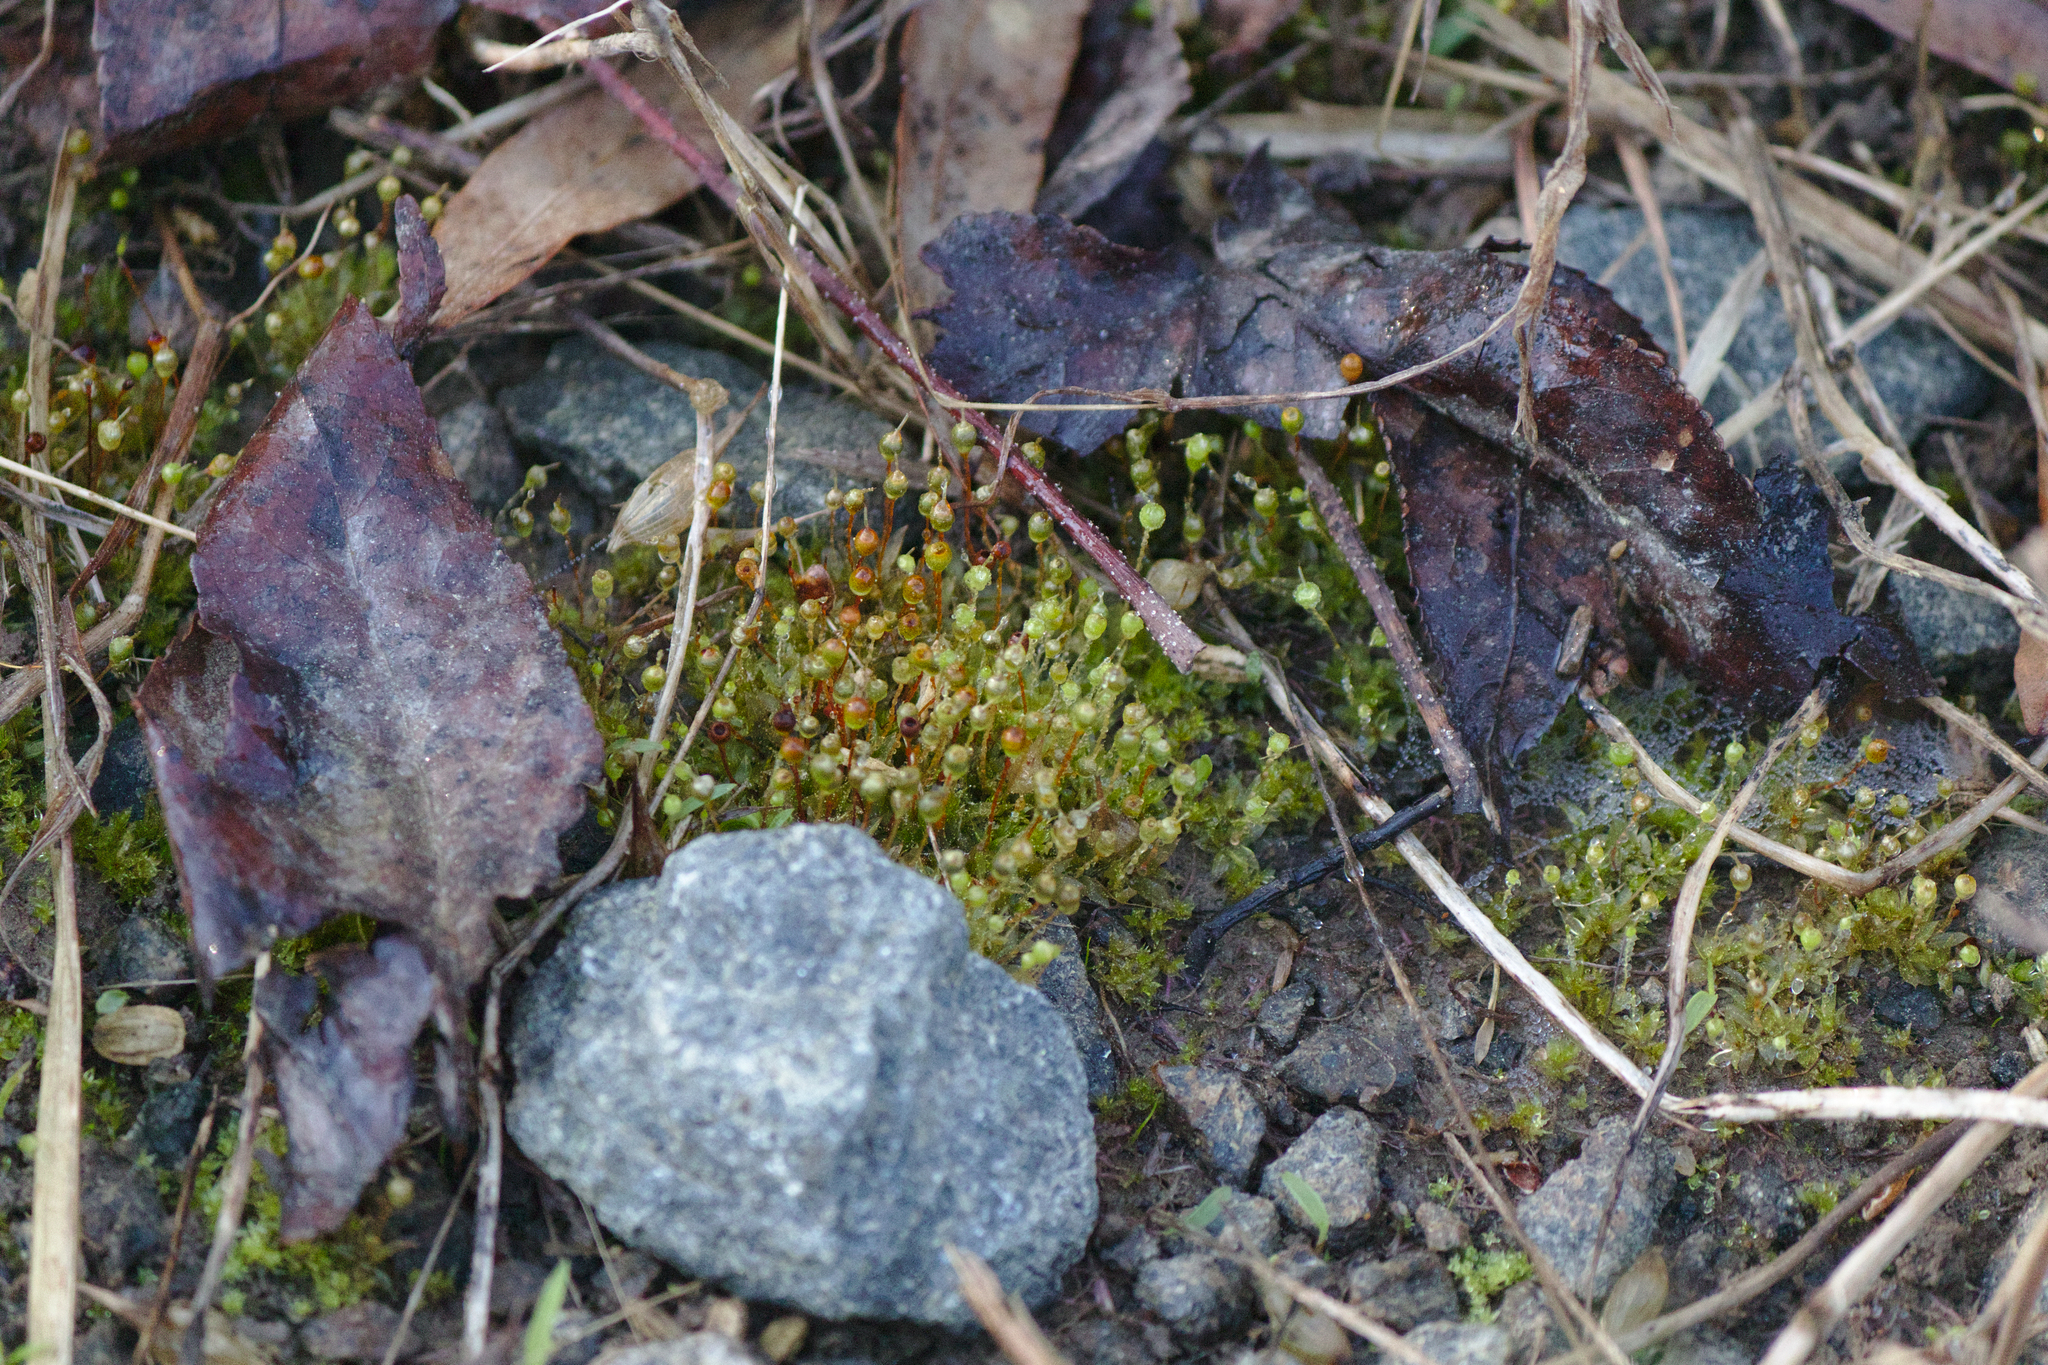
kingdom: Plantae
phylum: Bryophyta
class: Bryopsida
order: Funariales
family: Funariaceae
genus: Physcomitrium
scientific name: Physcomitrium pyriforme
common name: Common bladder-moss
